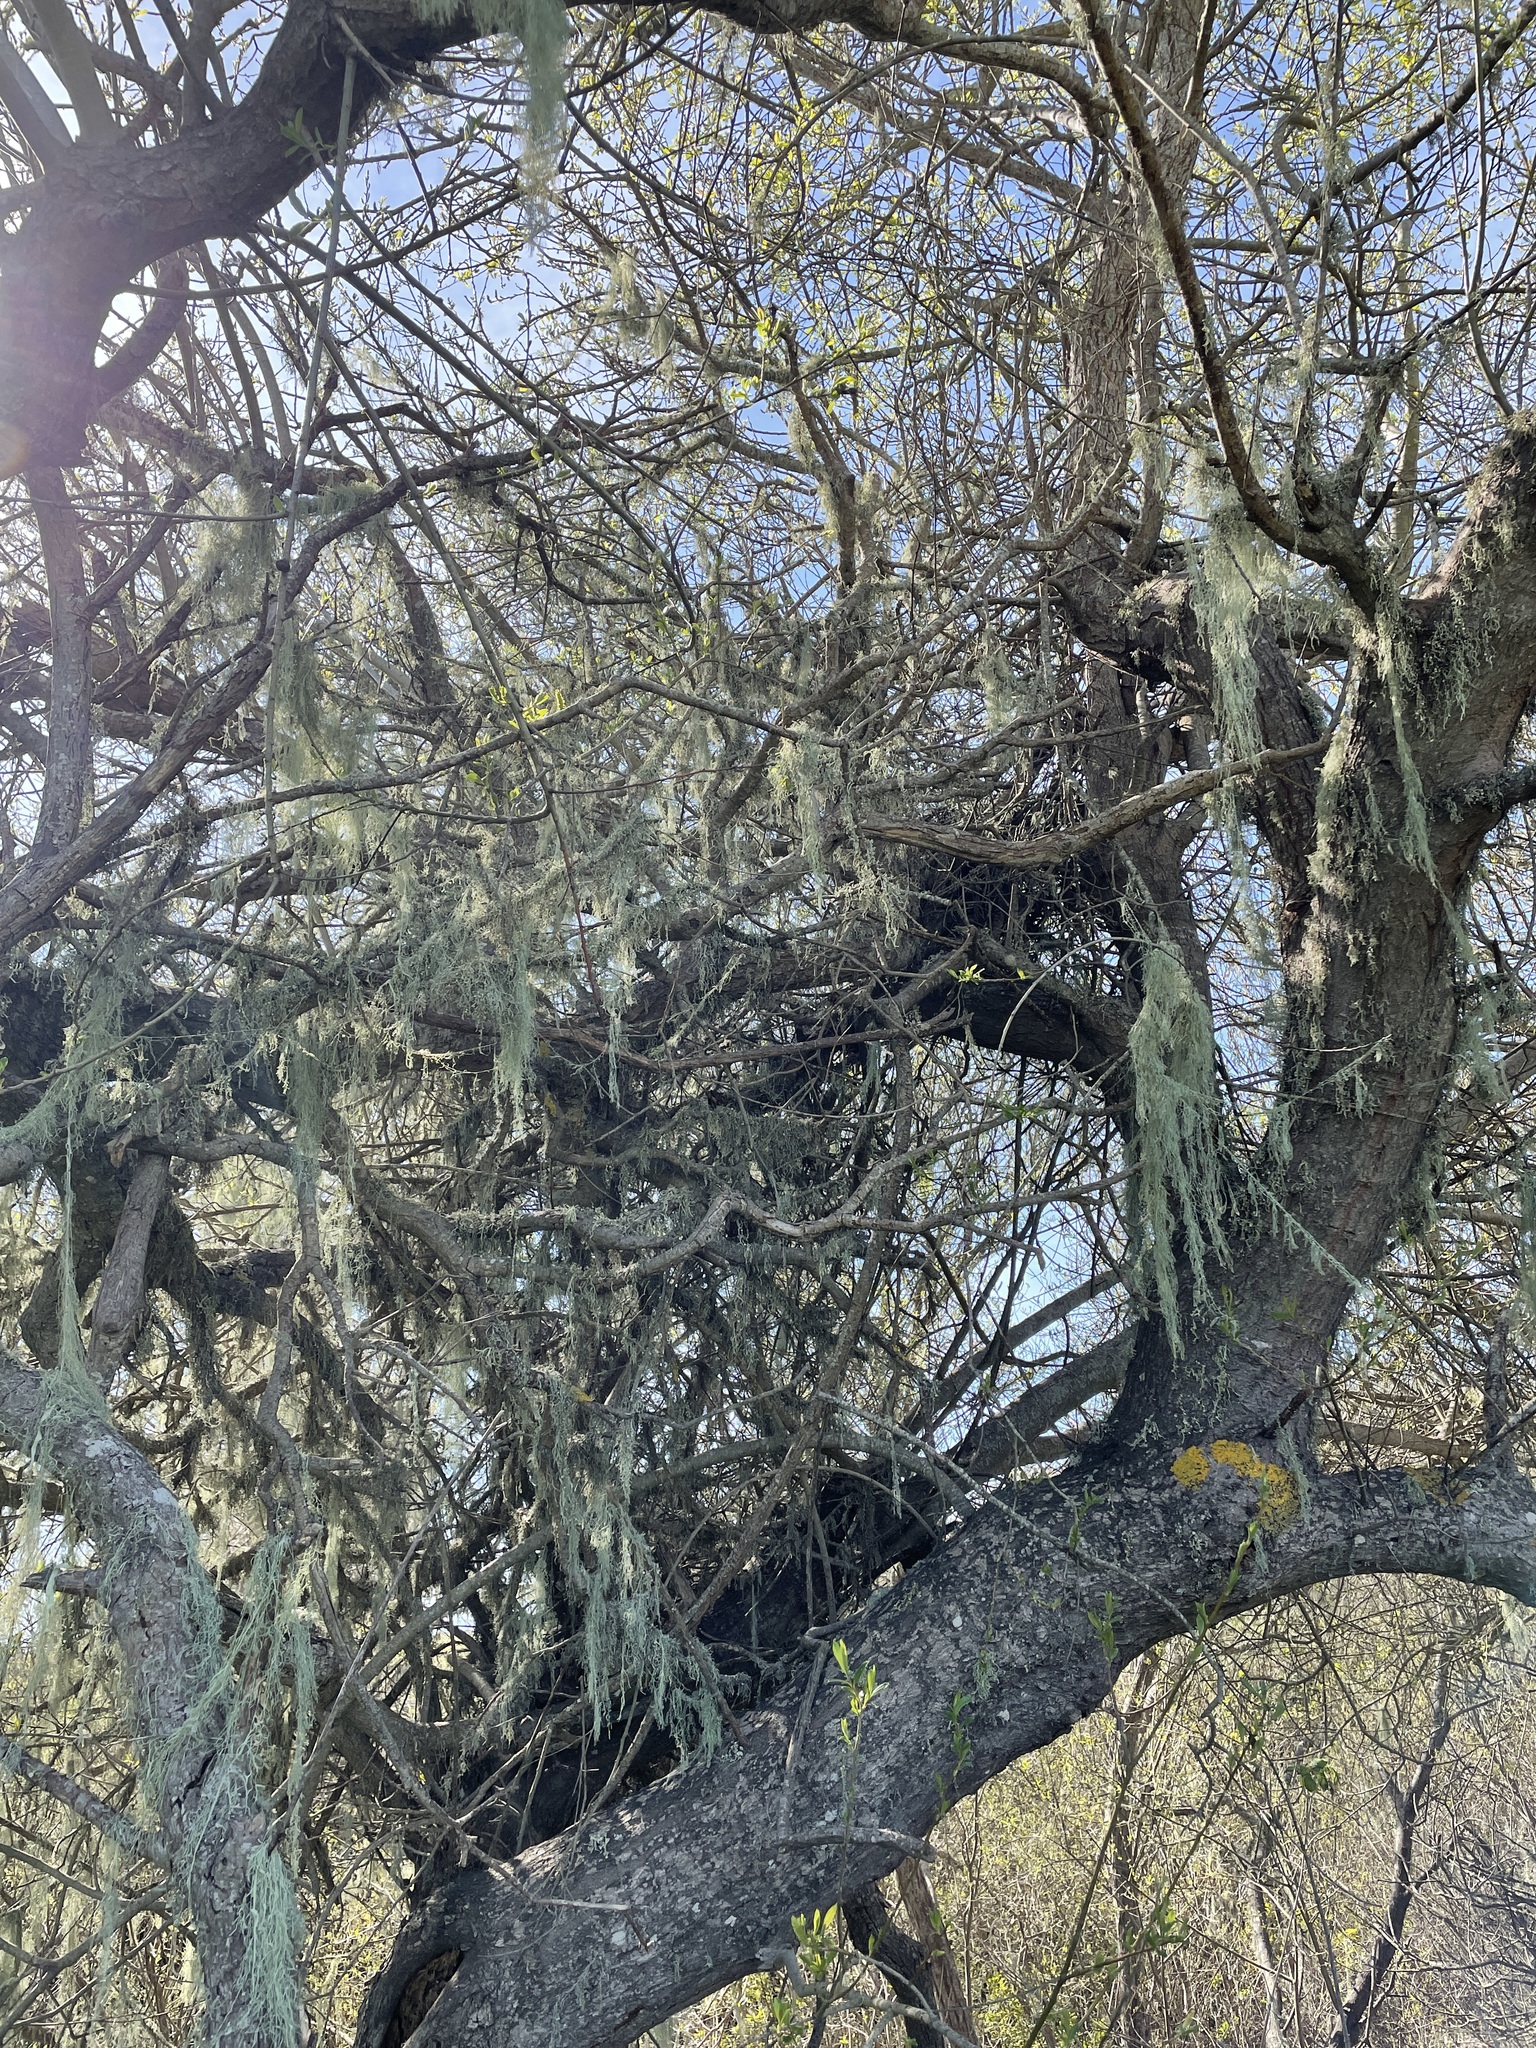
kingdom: Fungi
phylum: Ascomycota
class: Lecanoromycetes
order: Lecanorales
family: Ramalinaceae
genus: Ramalina
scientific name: Ramalina menziesii
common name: Lace lichen
